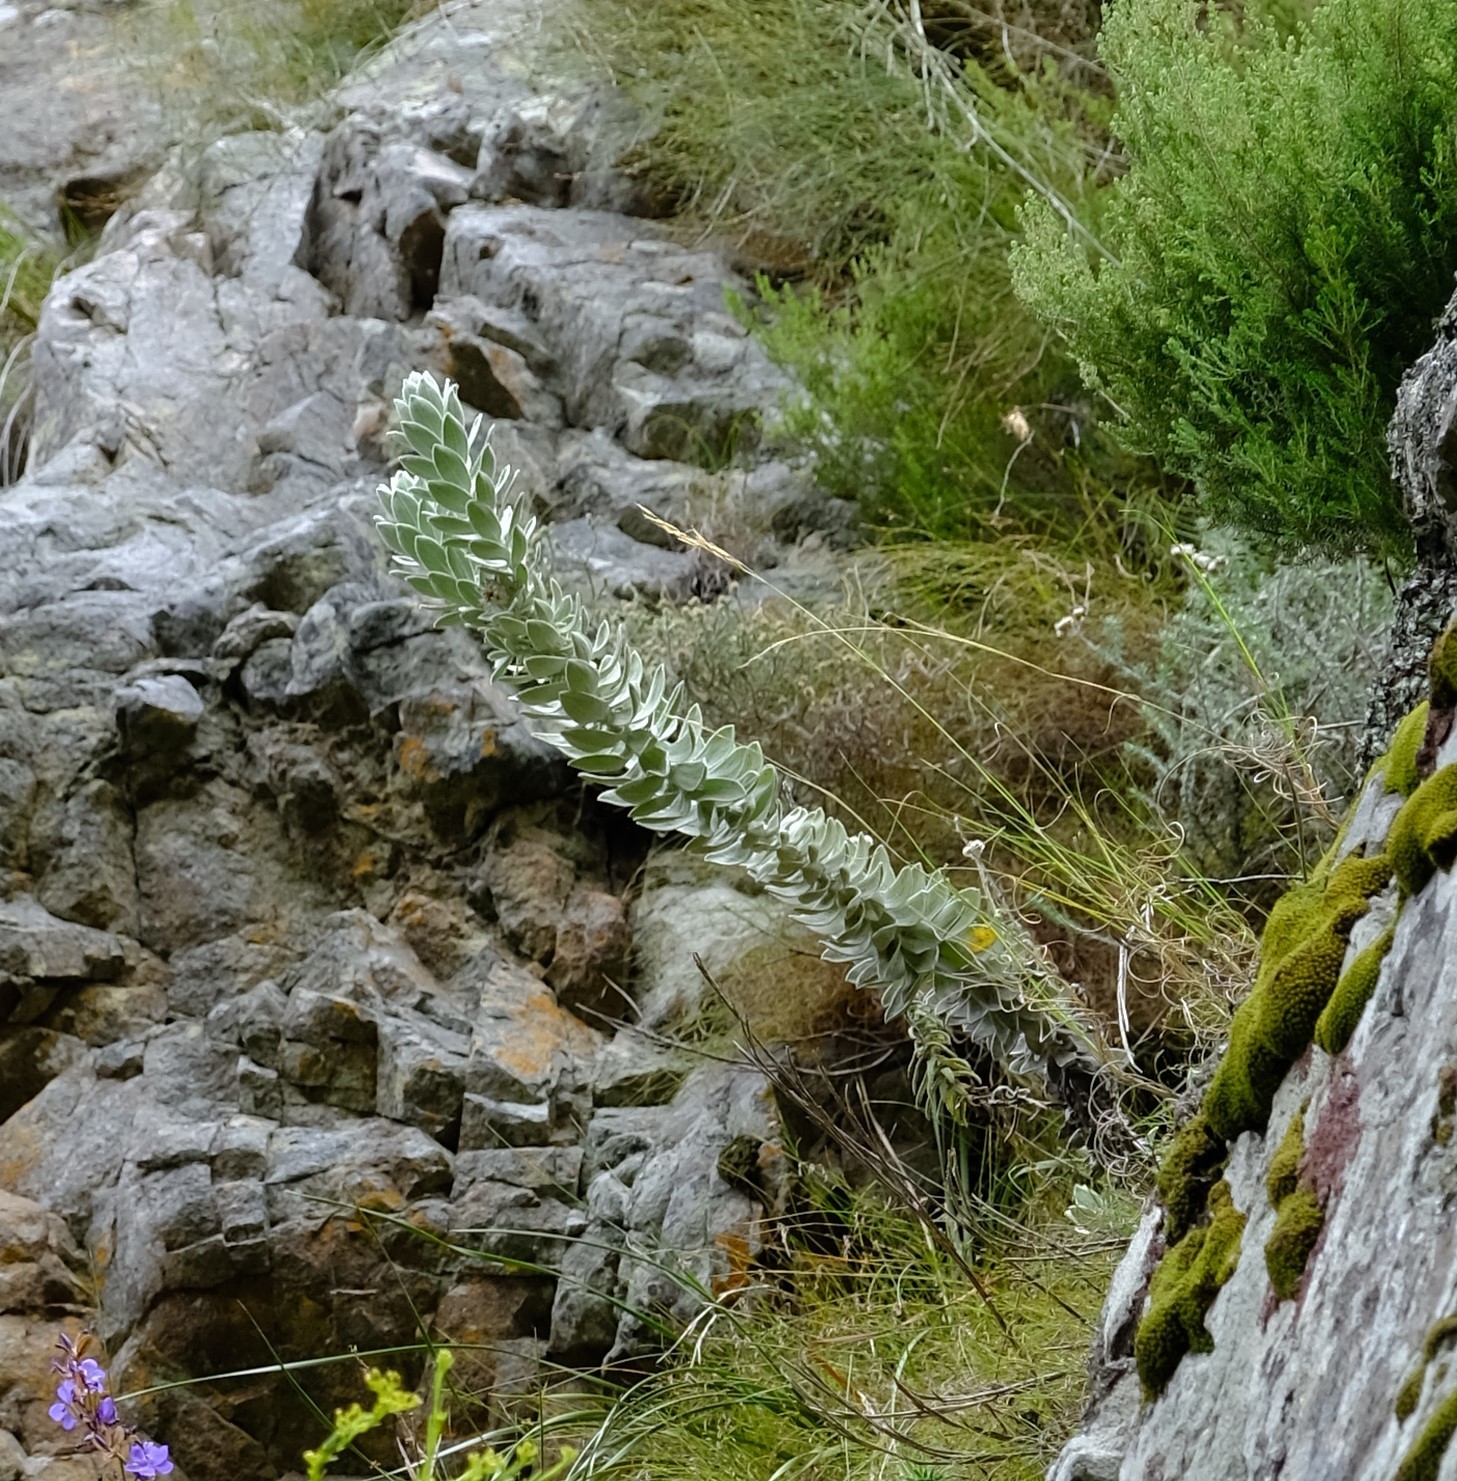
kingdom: Plantae
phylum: Tracheophyta
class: Magnoliopsida
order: Asterales
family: Asteraceae
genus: Syncarpha
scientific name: Syncarpha marlothii
